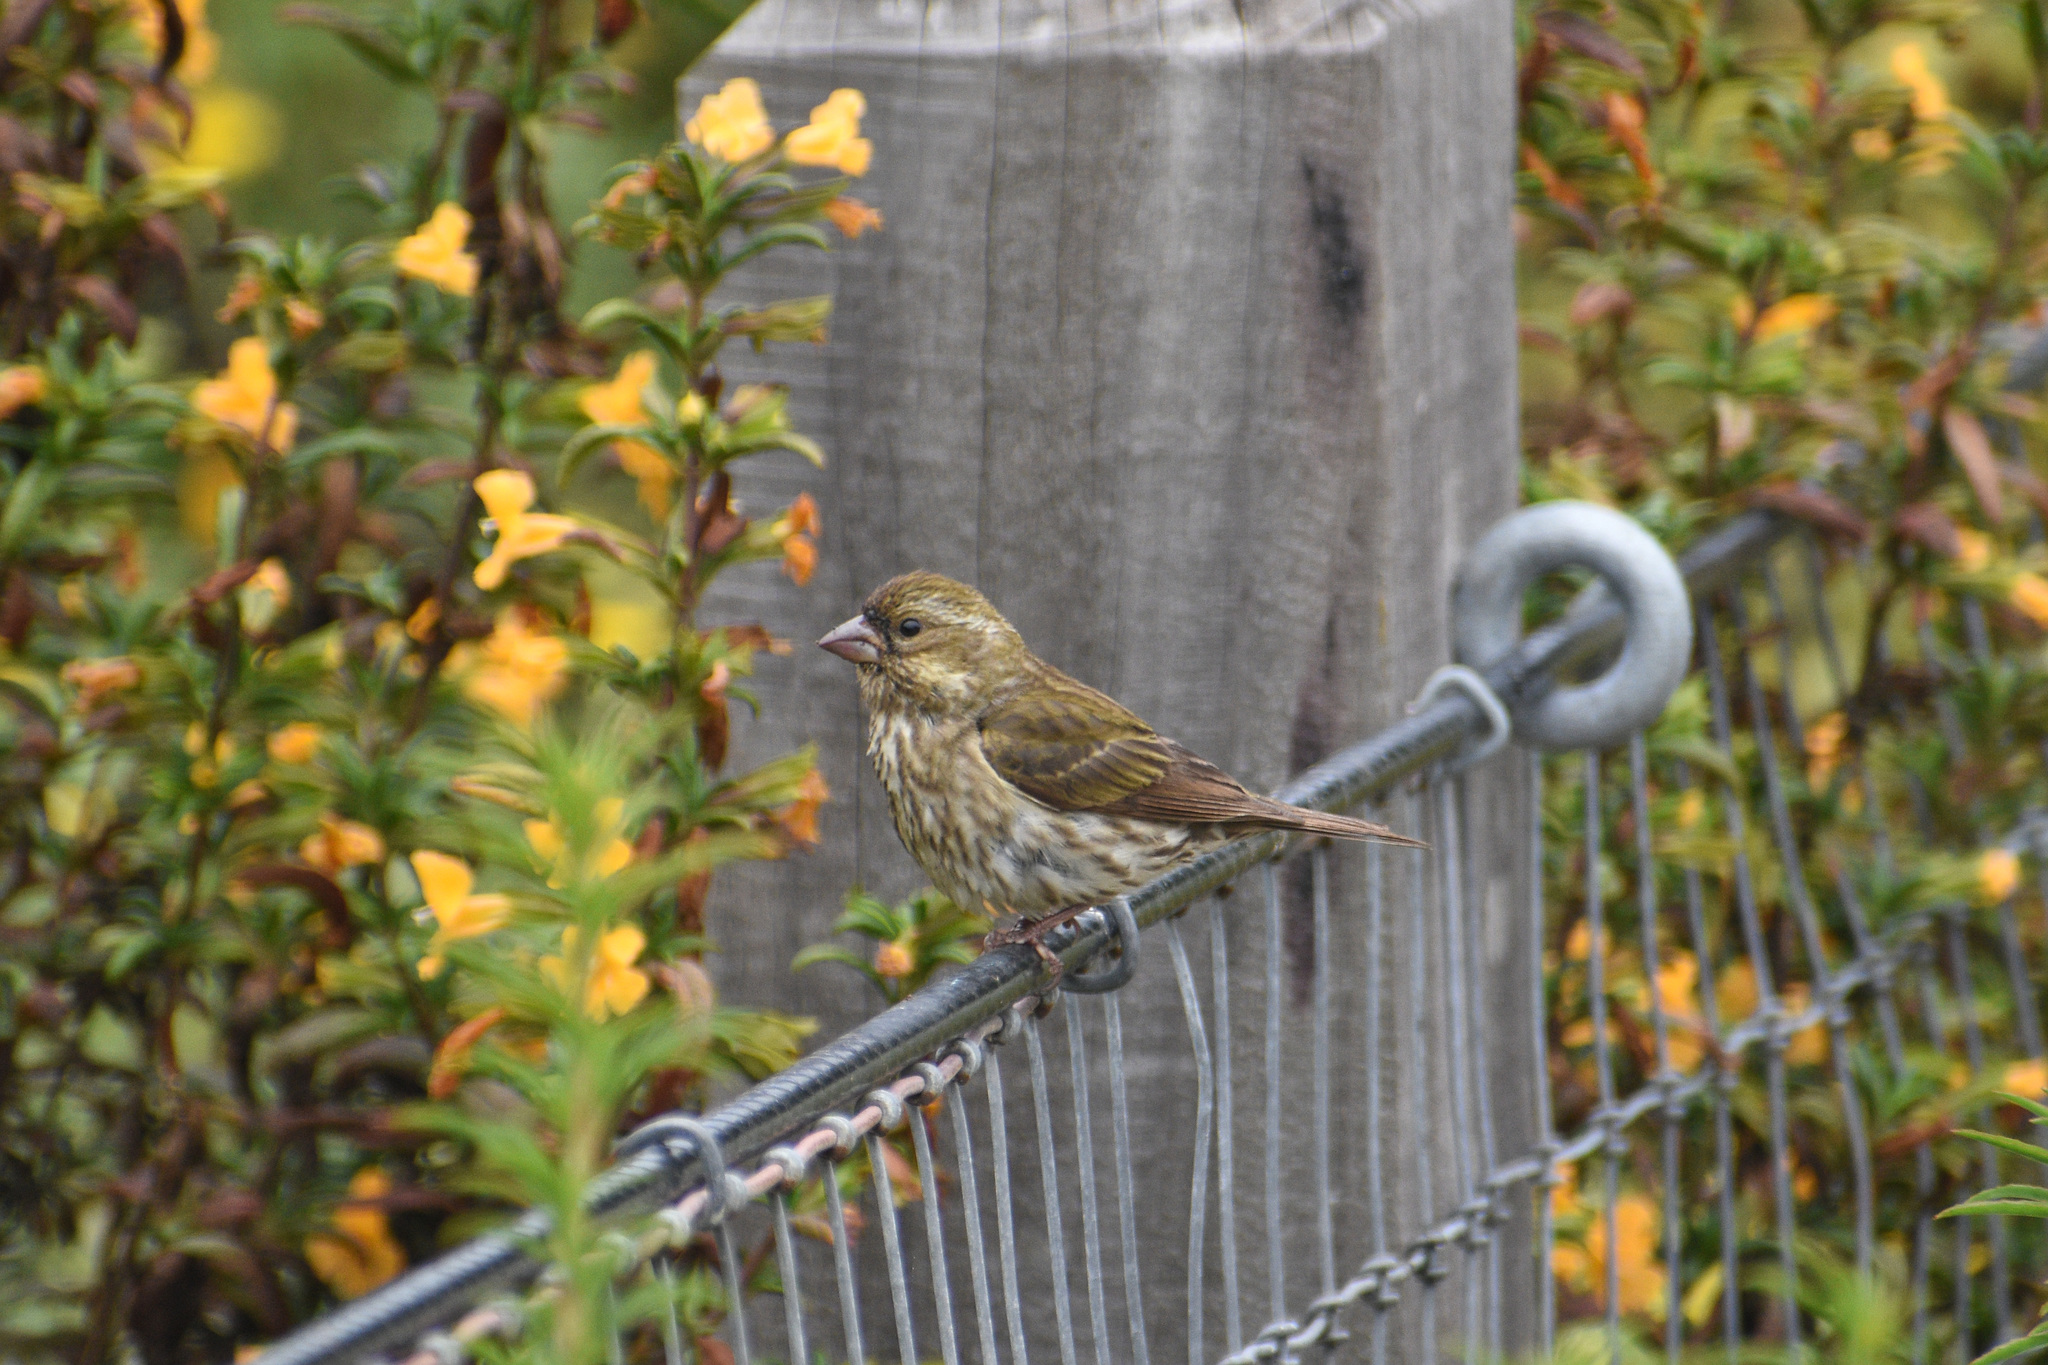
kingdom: Animalia
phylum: Chordata
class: Aves
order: Passeriformes
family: Fringillidae
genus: Haemorhous
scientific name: Haemorhous purpureus
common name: Purple finch
